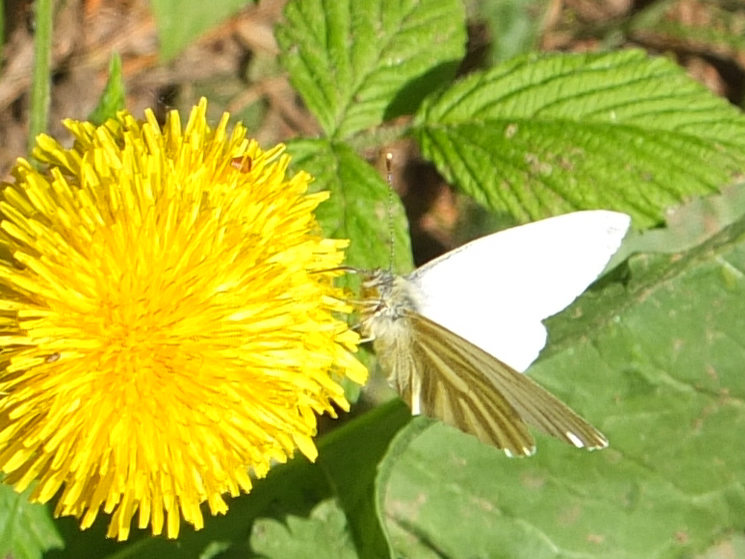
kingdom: Animalia
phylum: Arthropoda
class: Insecta
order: Lepidoptera
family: Pieridae
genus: Pieris
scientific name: Pieris napi
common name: Green-veined white
